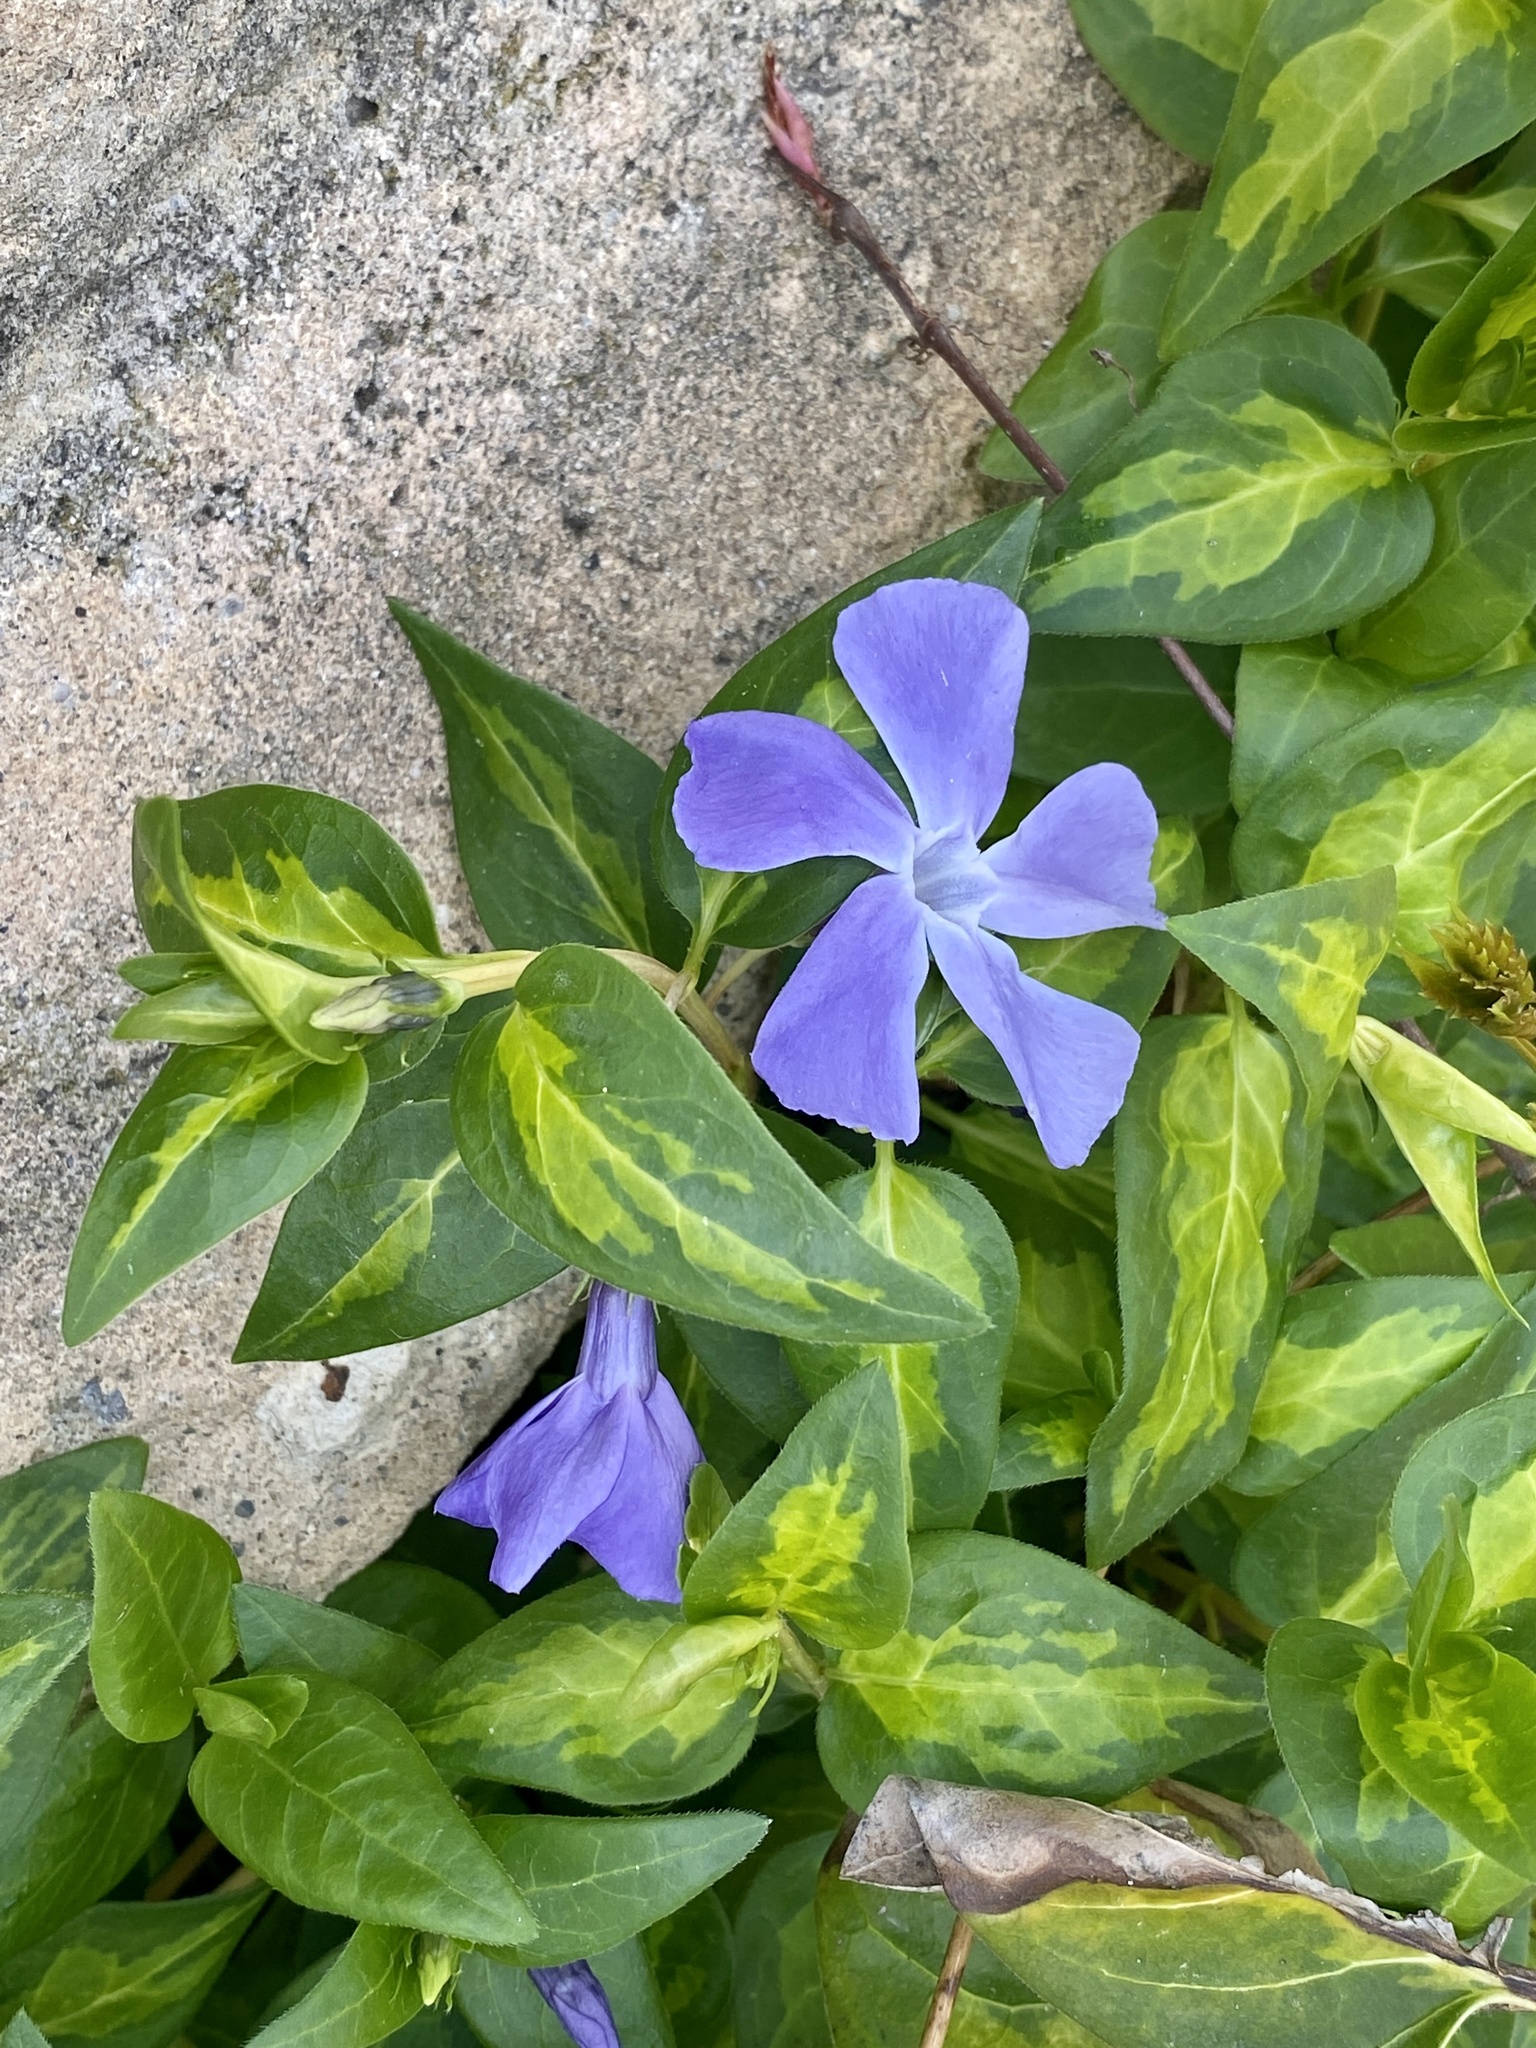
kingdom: Plantae
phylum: Tracheophyta
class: Magnoliopsida
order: Gentianales
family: Apocynaceae
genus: Vinca
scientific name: Vinca major
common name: Greater periwinkle
